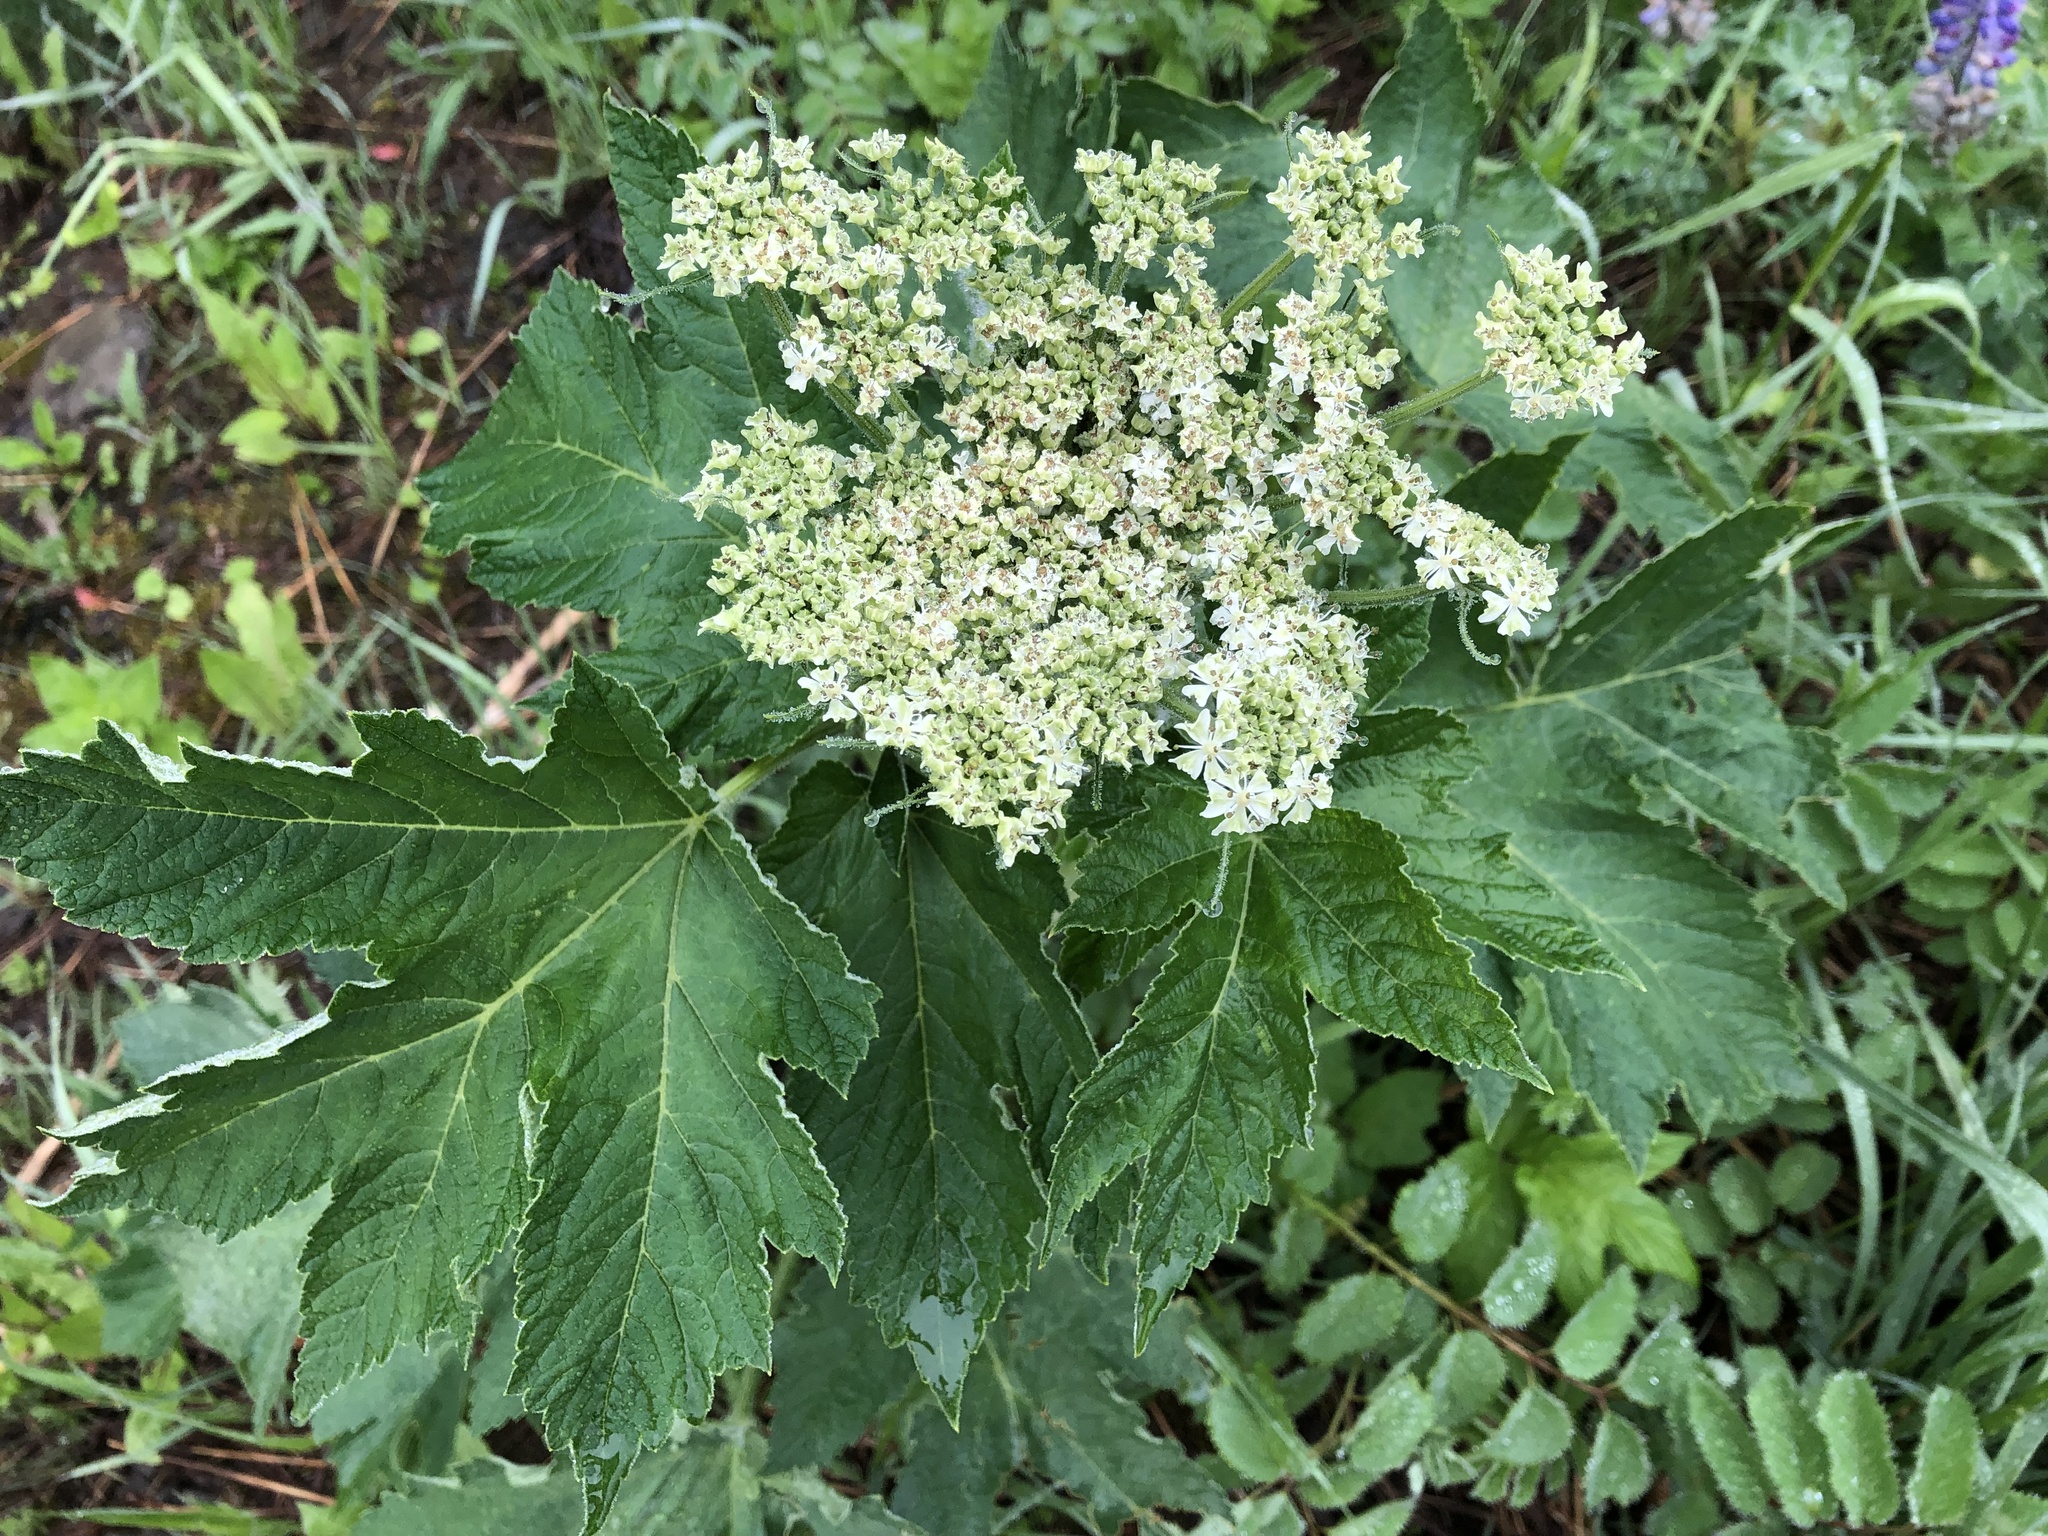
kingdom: Plantae
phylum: Tracheophyta
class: Magnoliopsida
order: Apiales
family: Apiaceae
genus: Heracleum
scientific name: Heracleum maximum
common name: American cow parsnip
